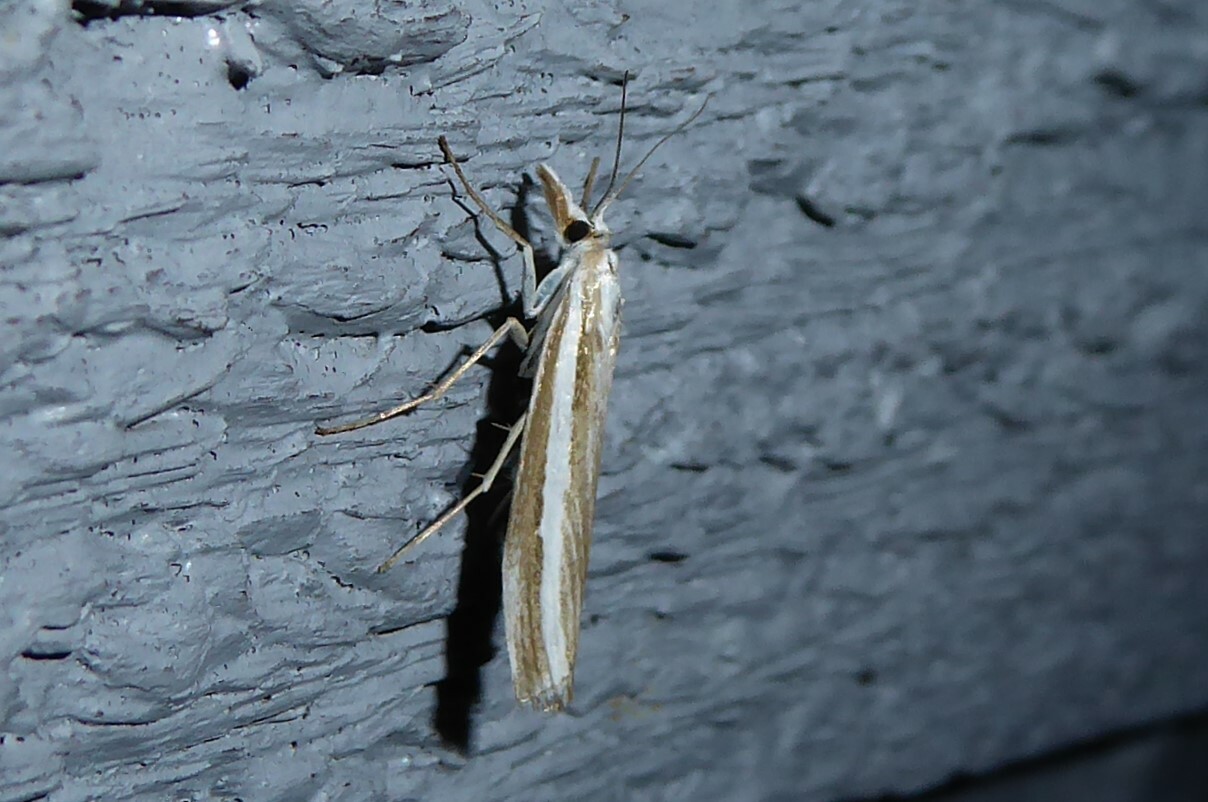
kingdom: Animalia
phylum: Arthropoda
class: Insecta
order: Lepidoptera
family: Crambidae
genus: Orocrambus
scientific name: Orocrambus vittellus
